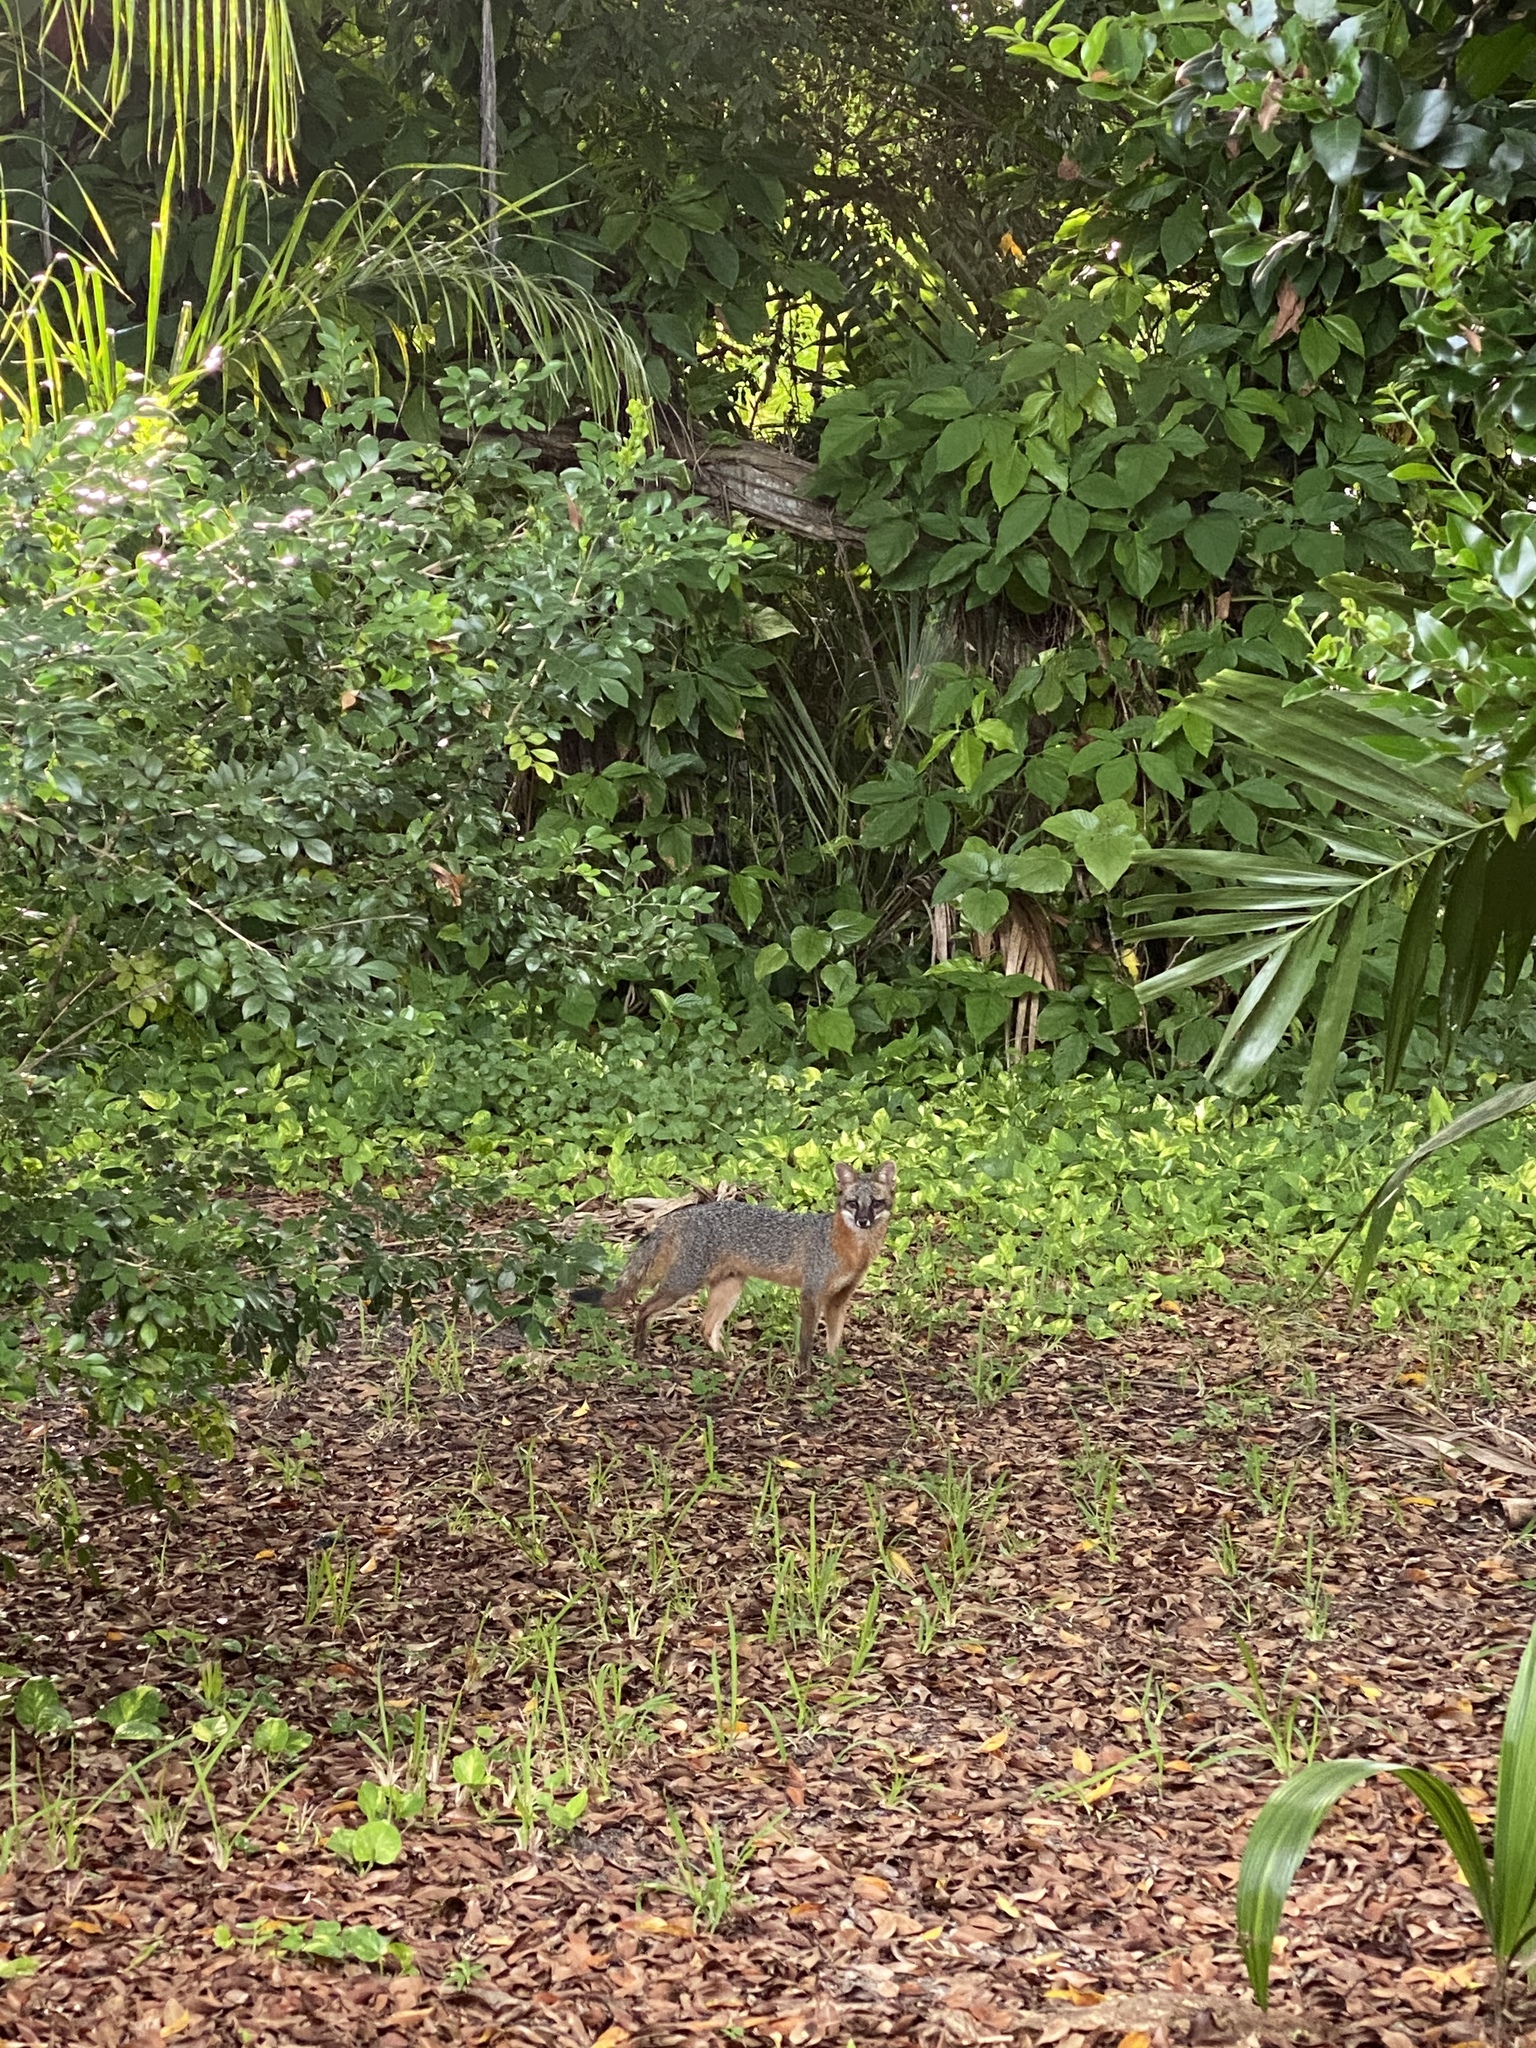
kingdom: Animalia
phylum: Chordata
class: Mammalia
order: Carnivora
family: Canidae
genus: Urocyon
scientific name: Urocyon cinereoargenteus
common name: Gray fox
